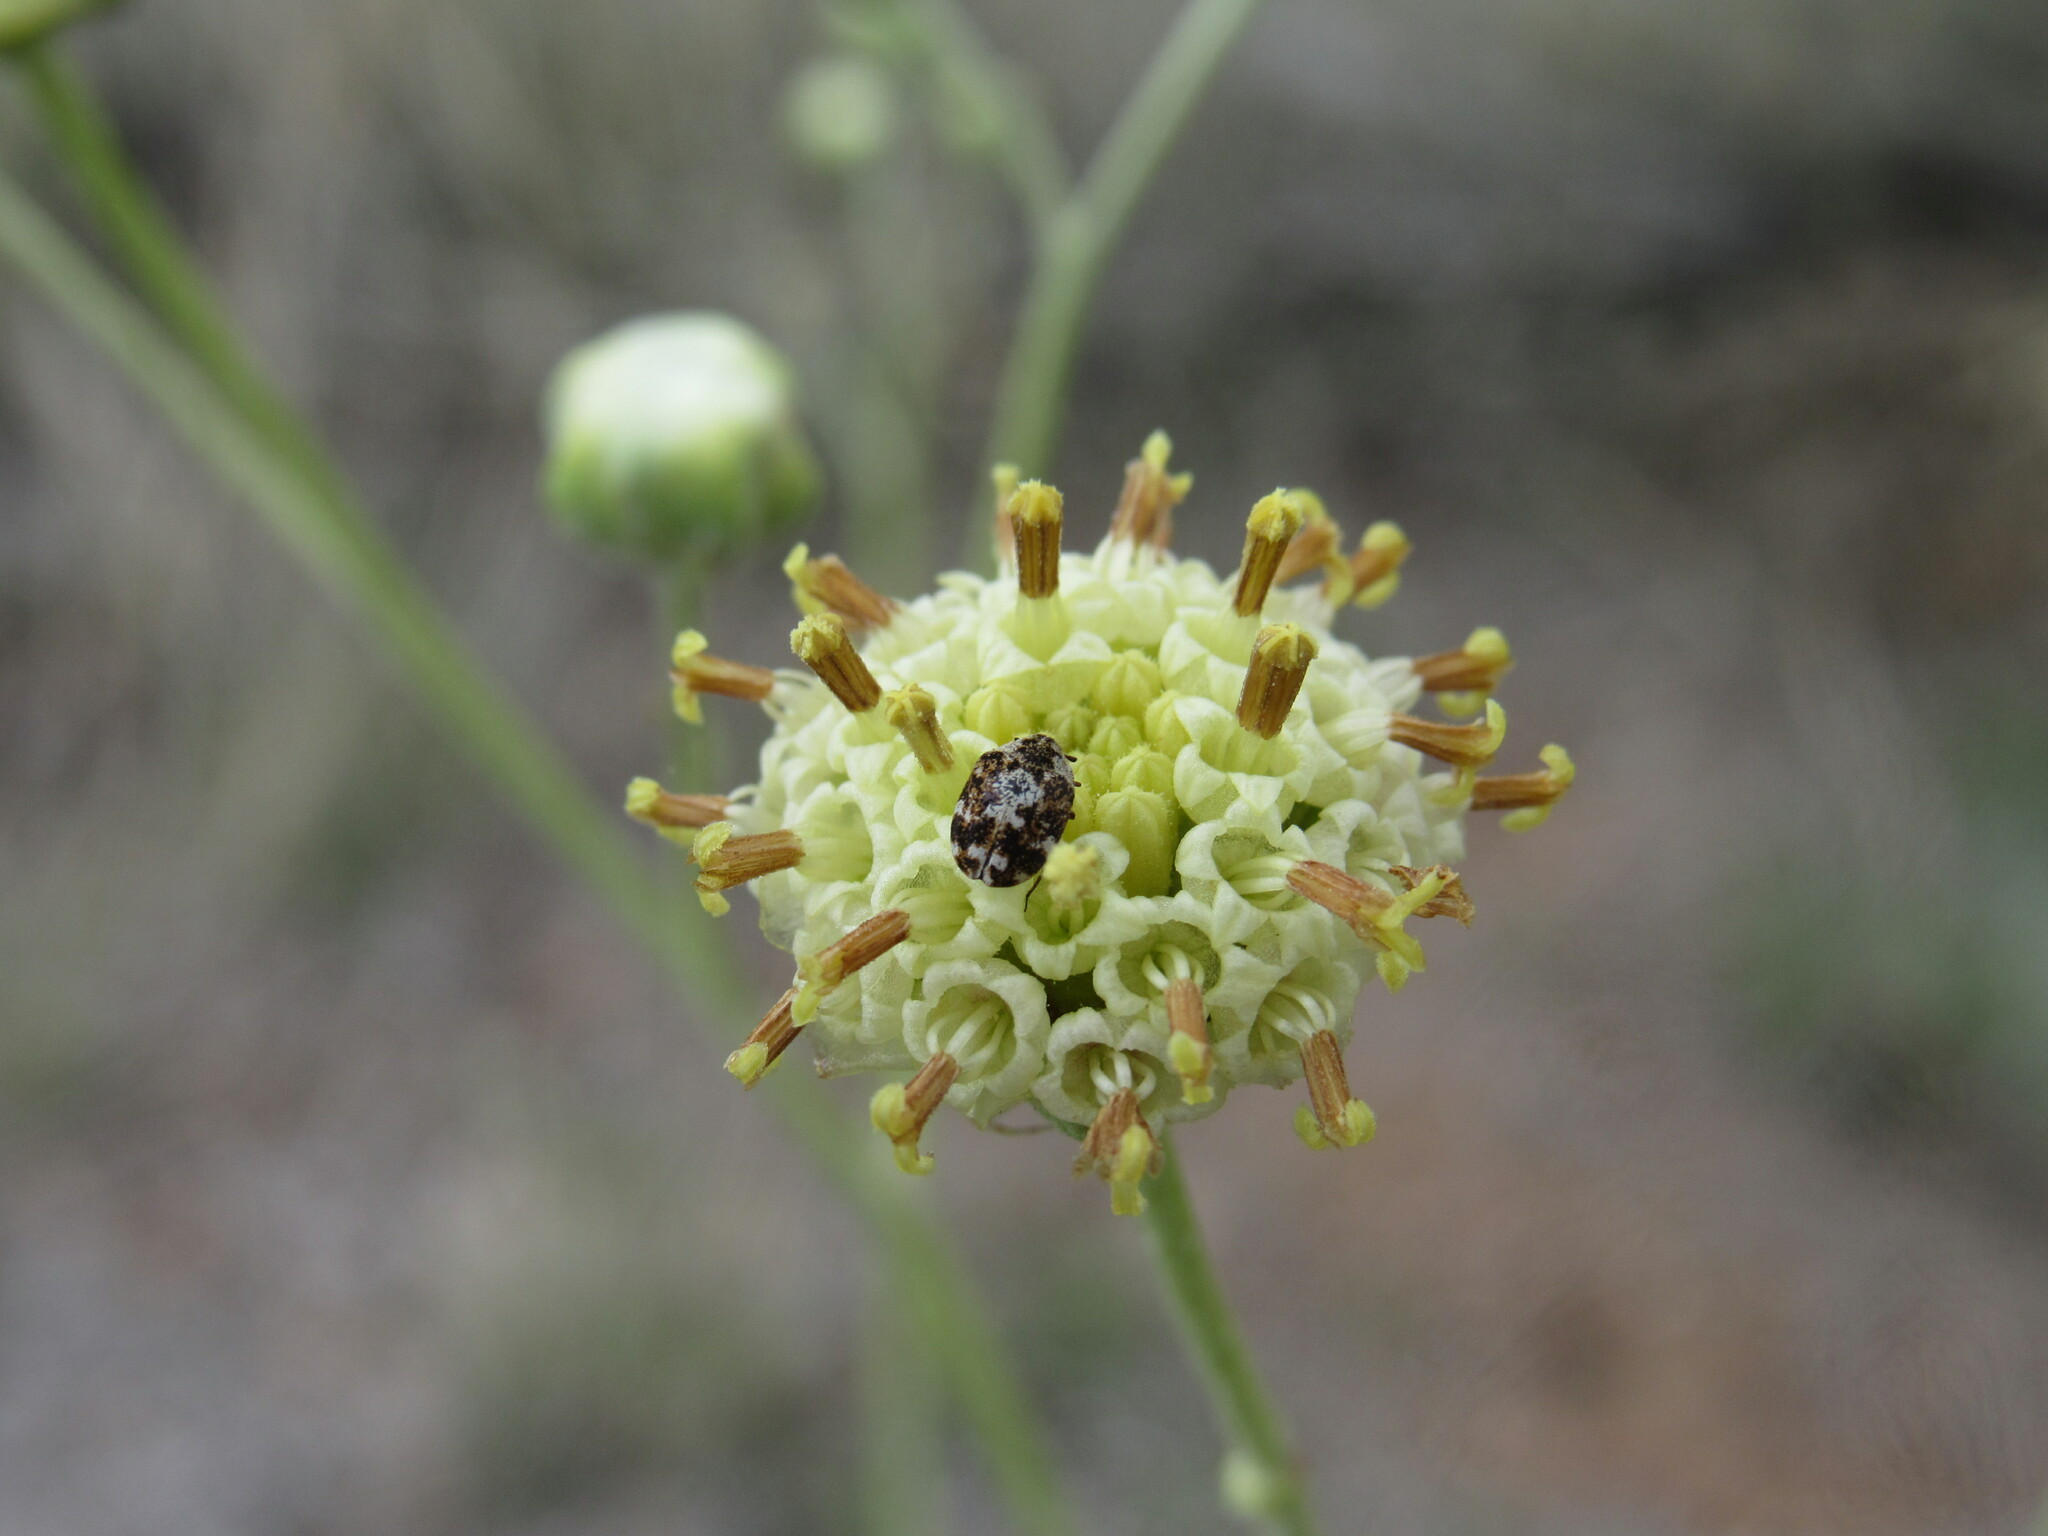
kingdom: Animalia
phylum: Arthropoda
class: Insecta
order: Coleoptera
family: Dermestidae
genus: Anthrenus
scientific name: Anthrenus lepidus
